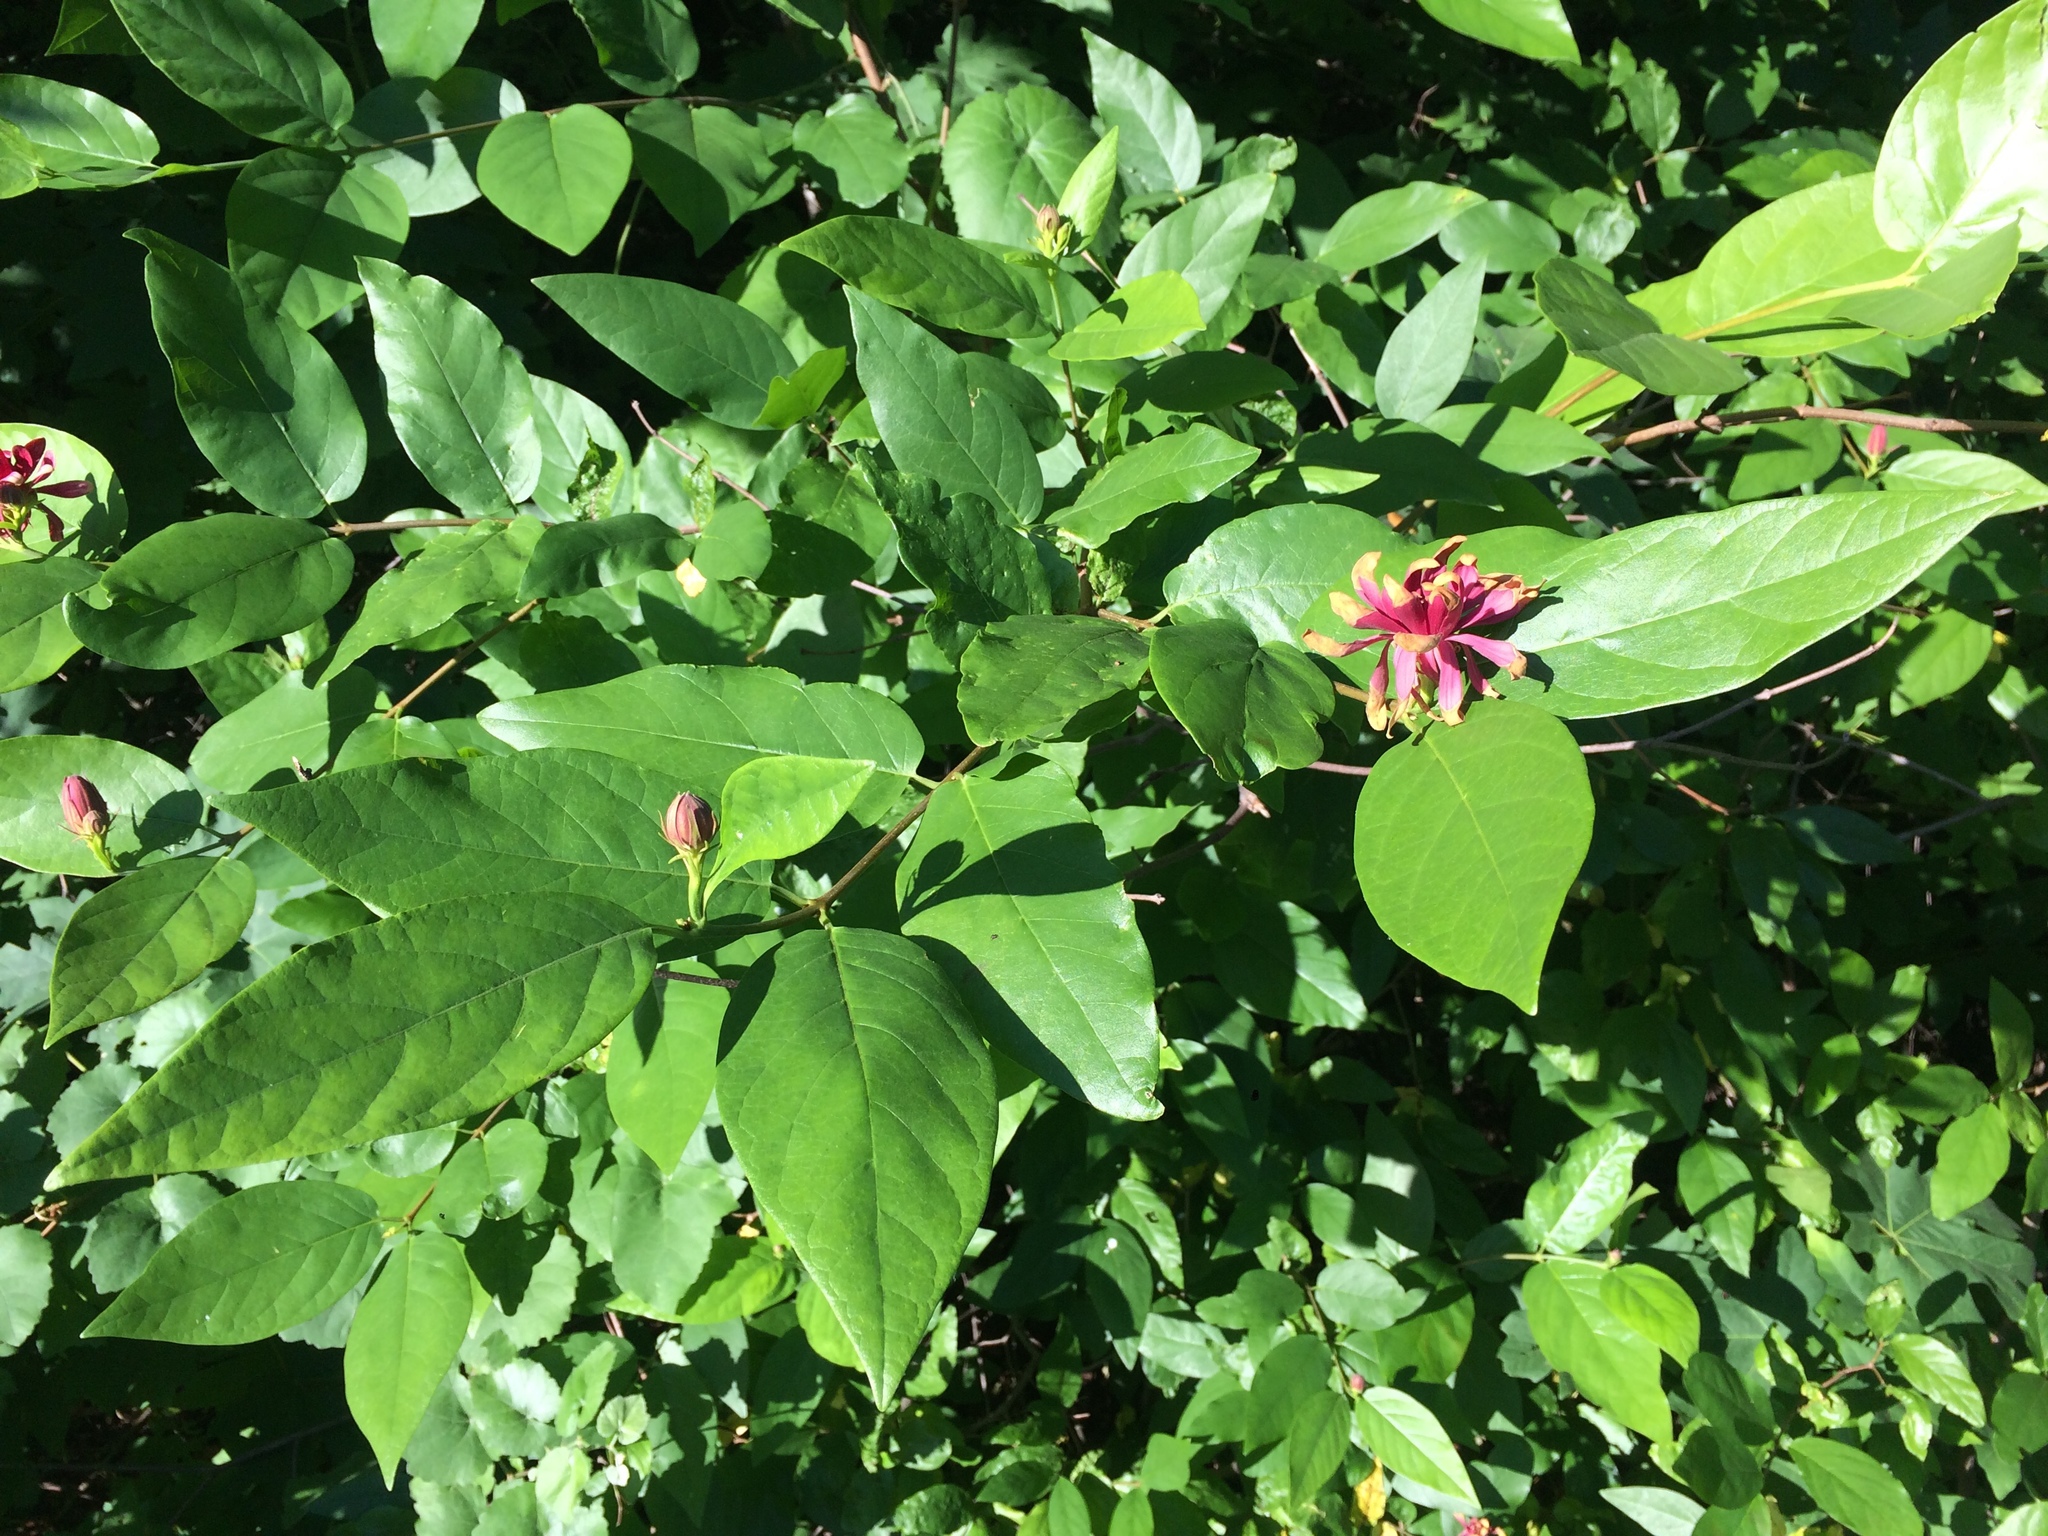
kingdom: Plantae
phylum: Tracheophyta
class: Magnoliopsida
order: Laurales
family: Calycanthaceae
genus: Calycanthus
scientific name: Calycanthus occidentalis
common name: California spicebush
